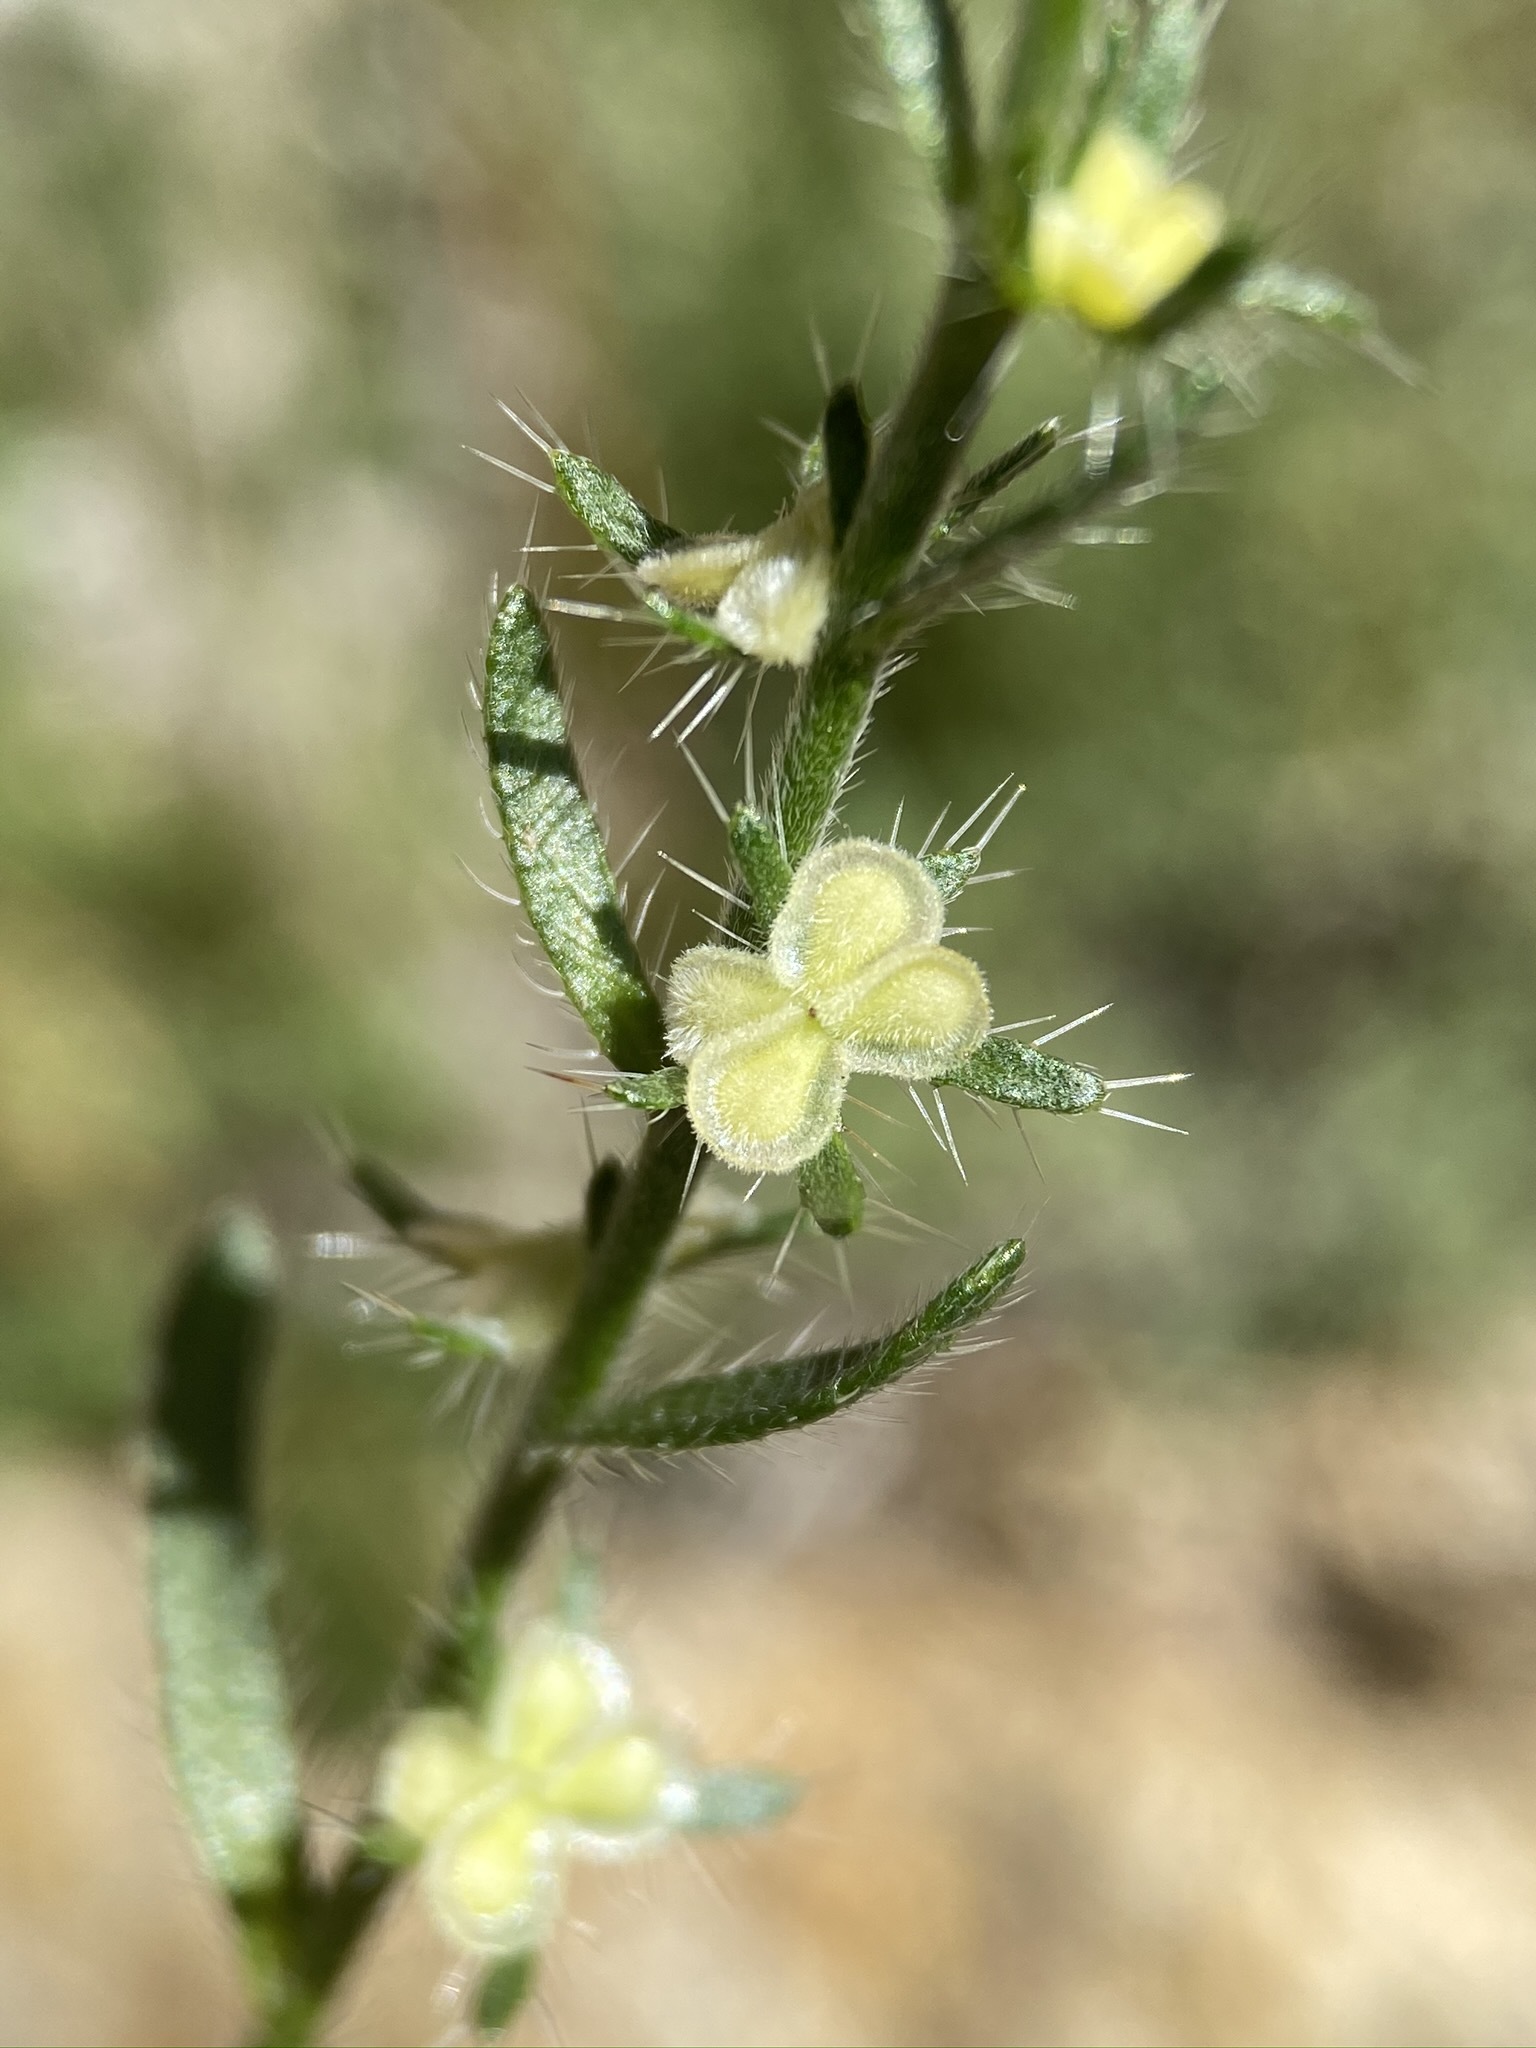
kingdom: Plantae
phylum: Tracheophyta
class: Magnoliopsida
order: Boraginales
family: Boraginaceae
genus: Pectocarya
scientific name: Pectocarya setosa
